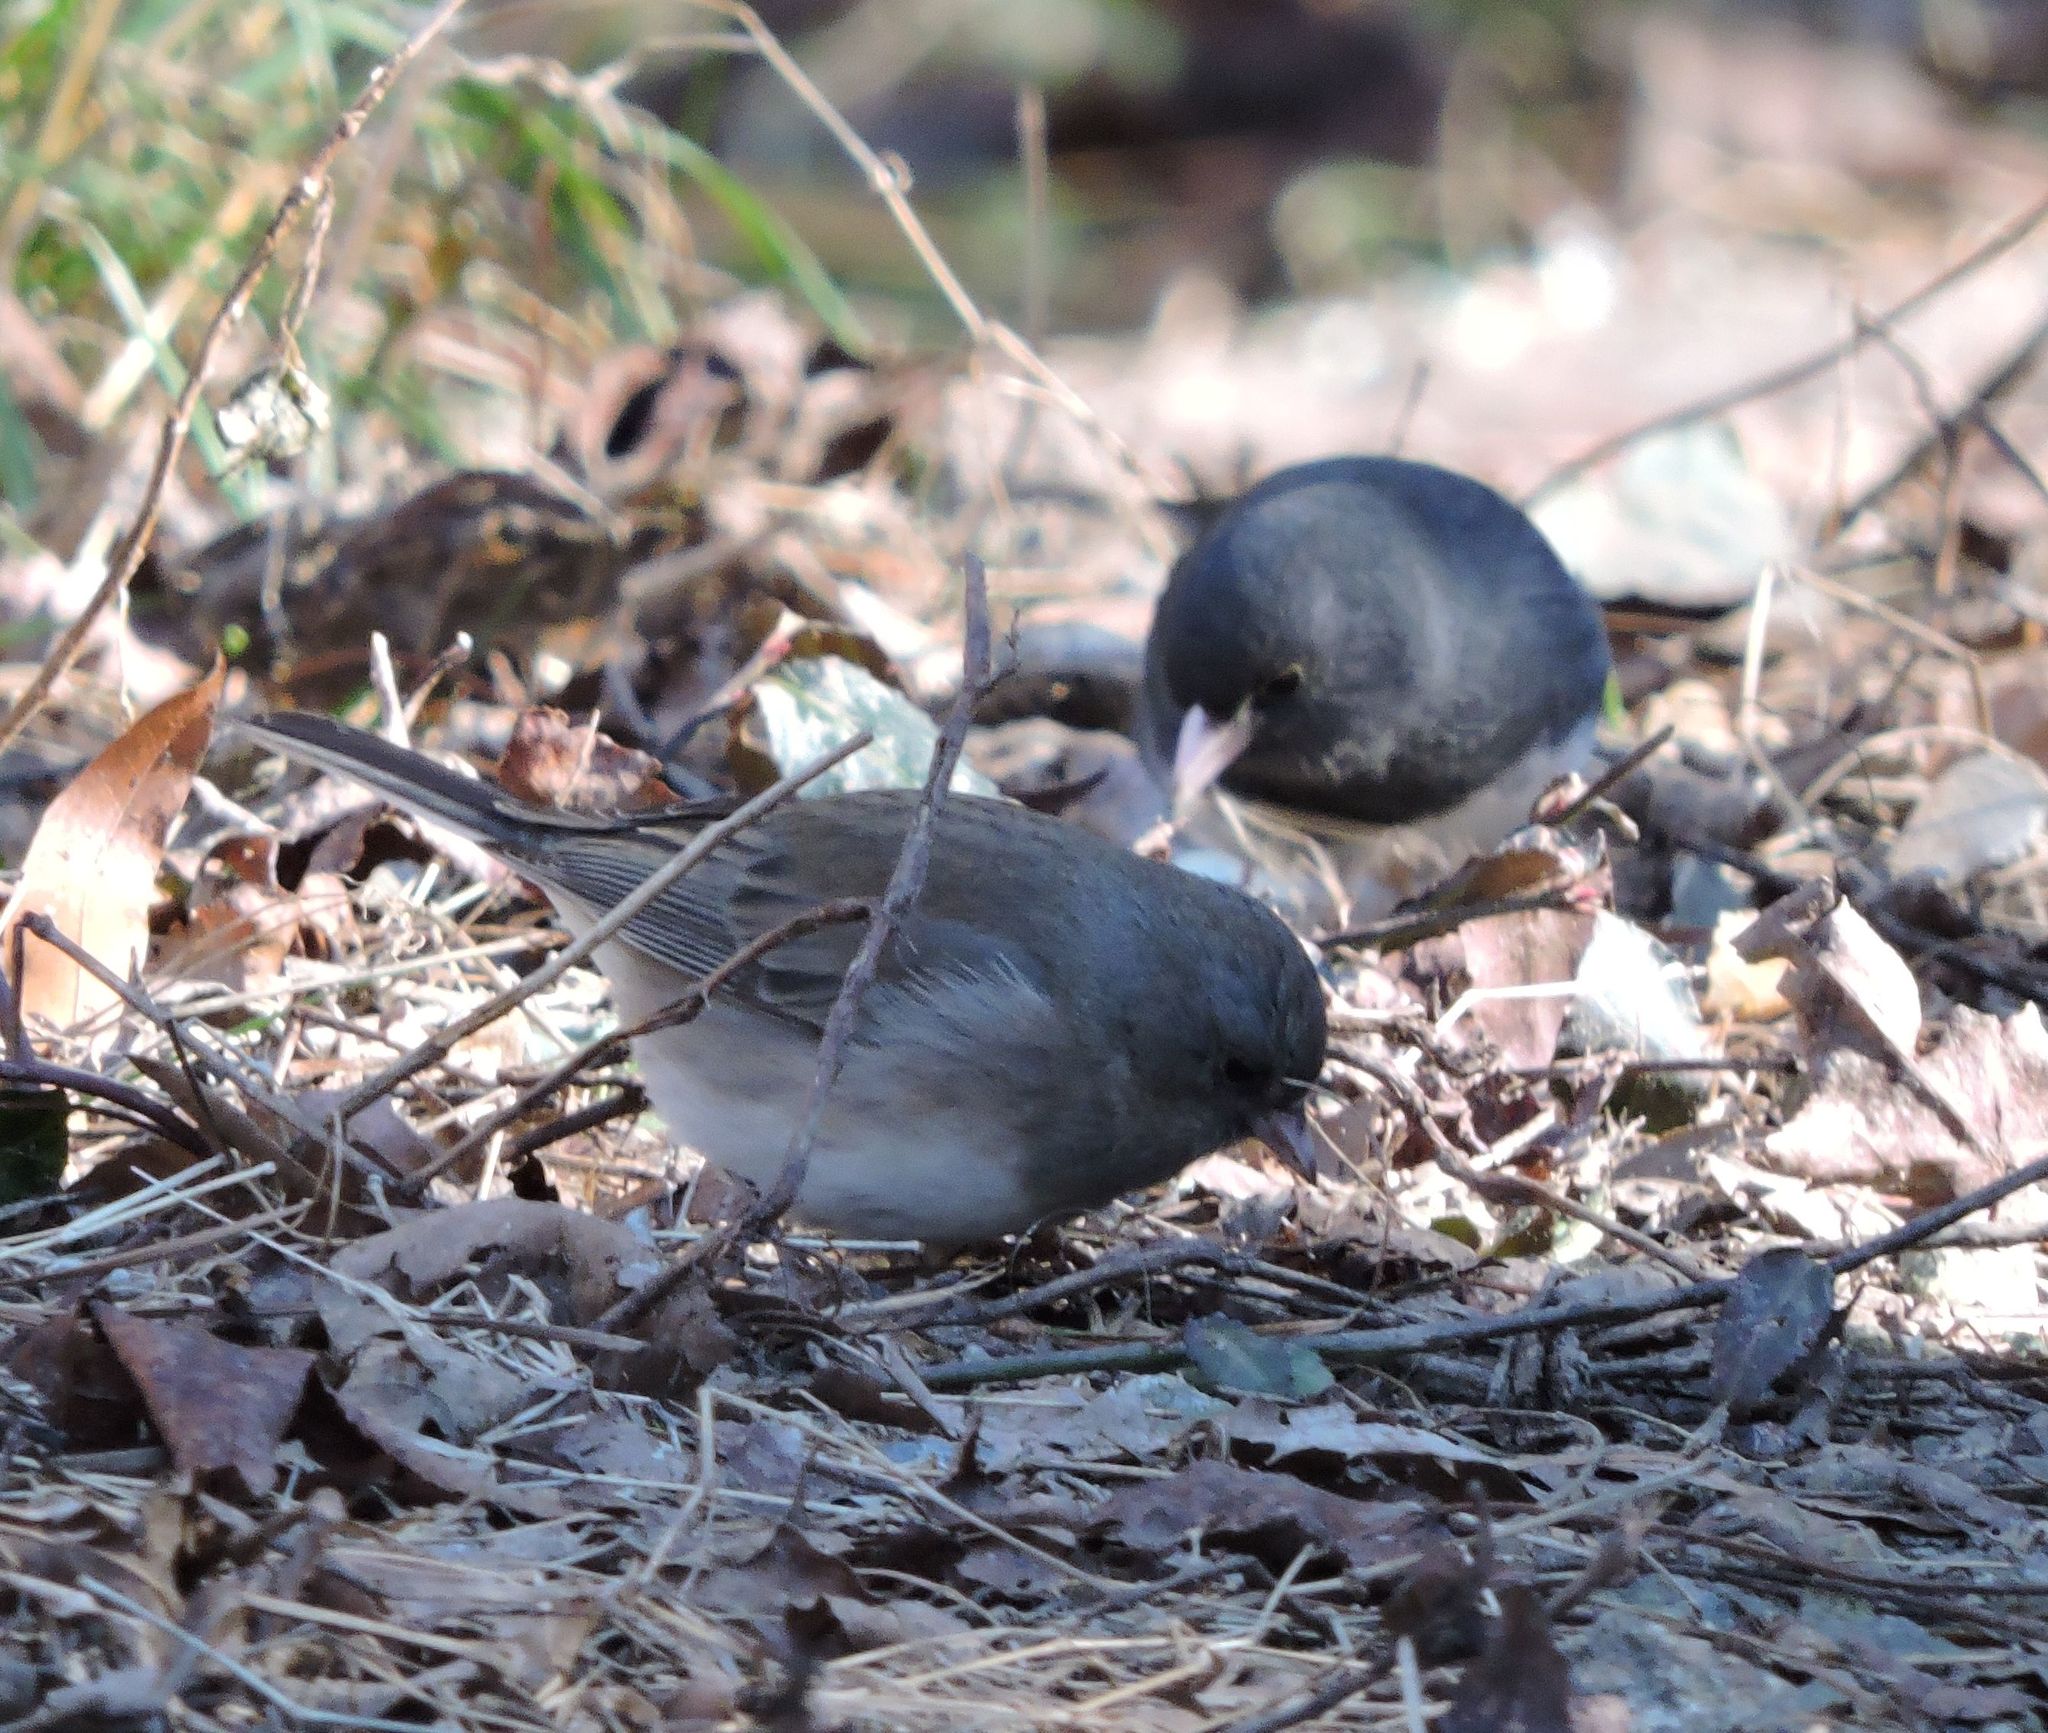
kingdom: Animalia
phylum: Chordata
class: Aves
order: Passeriformes
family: Passerellidae
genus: Junco
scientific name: Junco hyemalis
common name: Dark-eyed junco
